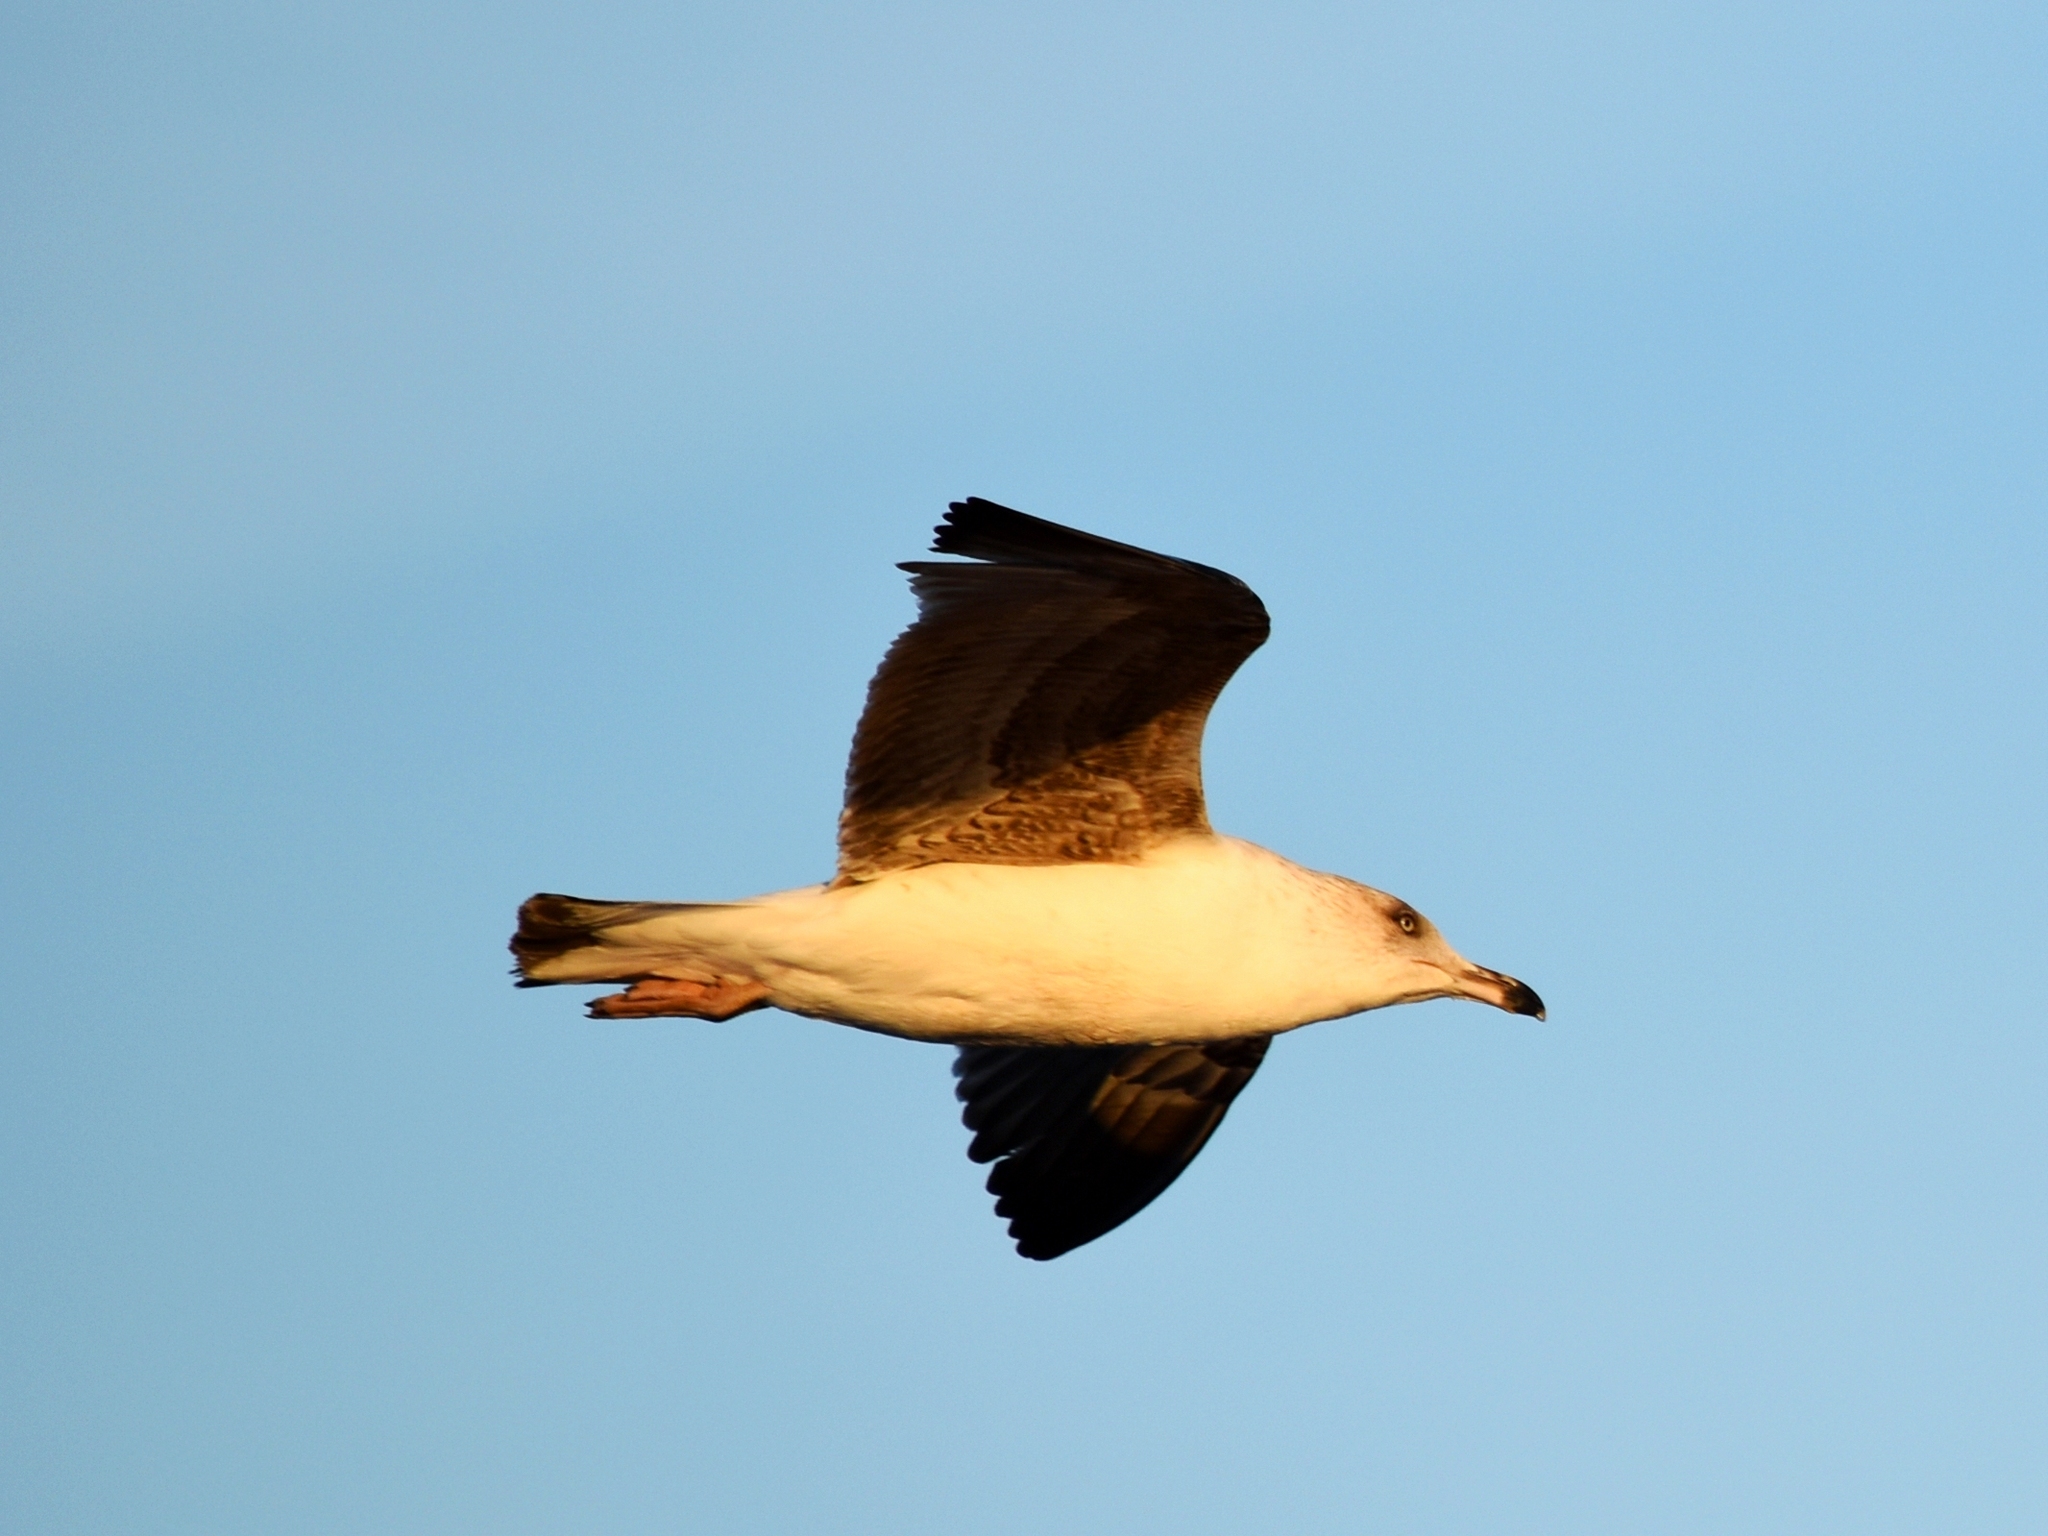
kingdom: Animalia
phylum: Chordata
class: Aves
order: Charadriiformes
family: Laridae
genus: Larus
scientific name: Larus michahellis
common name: Yellow-legged gull
